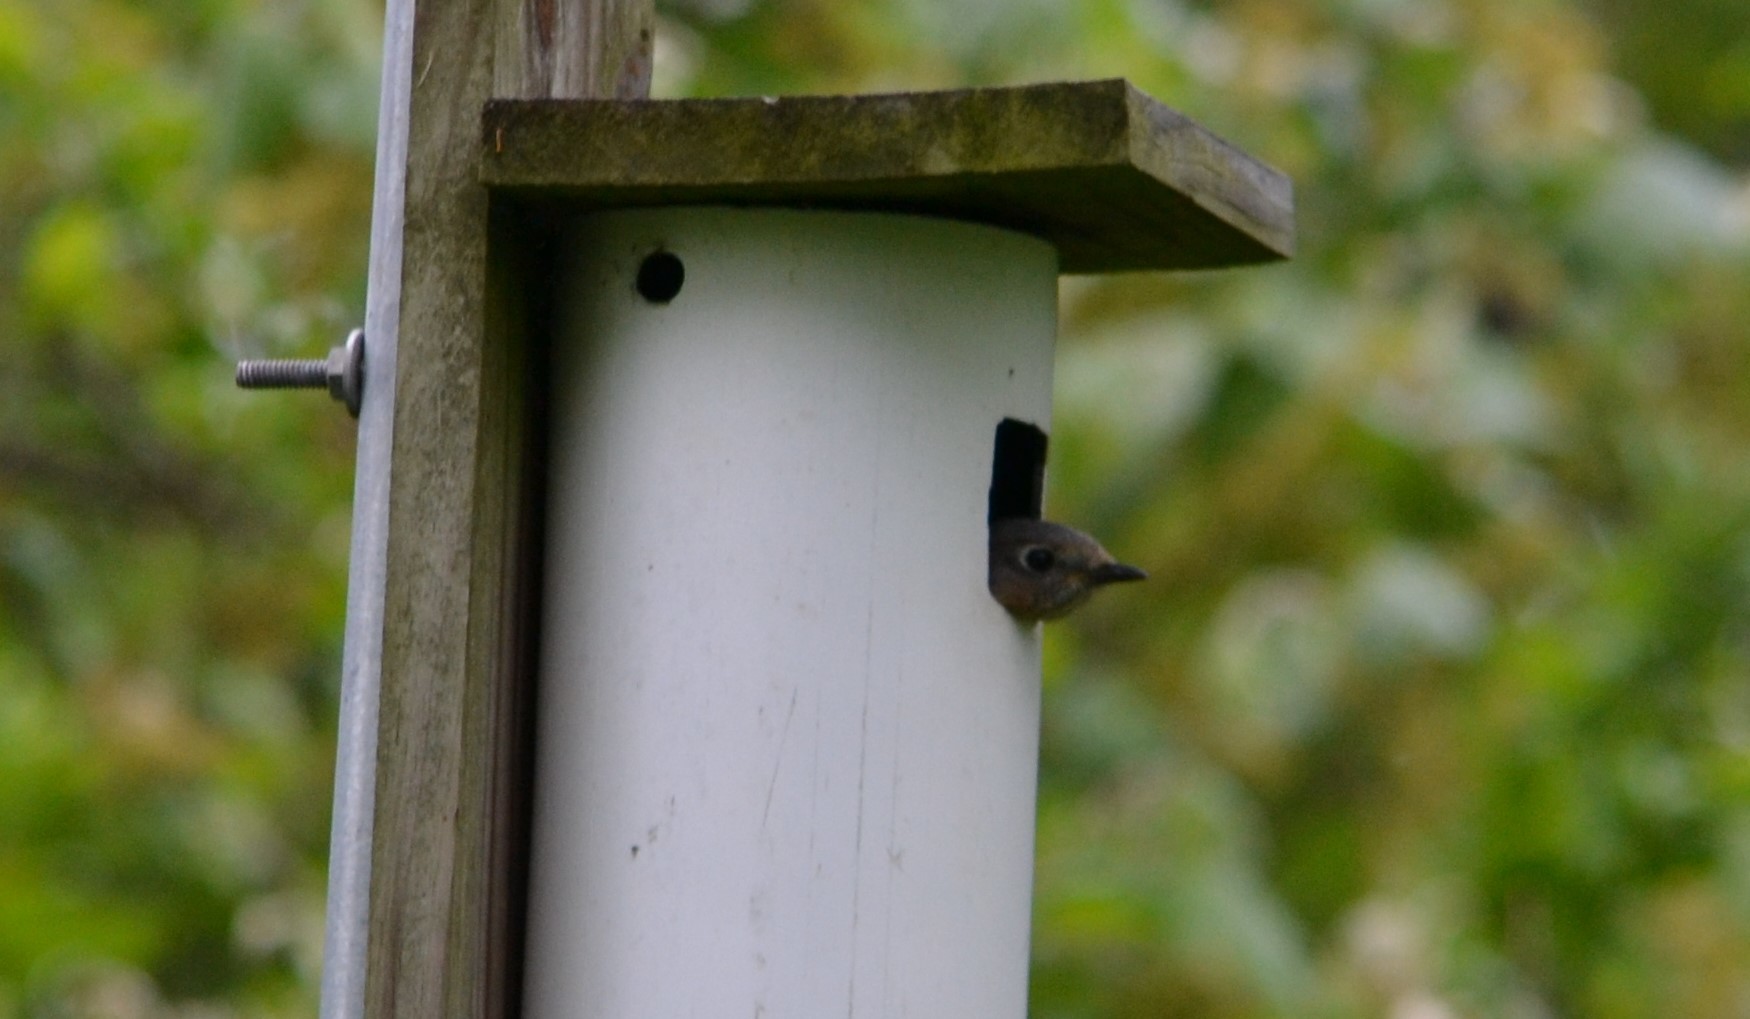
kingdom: Animalia
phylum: Chordata
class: Aves
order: Passeriformes
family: Turdidae
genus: Sialia
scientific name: Sialia sialis
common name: Eastern bluebird
